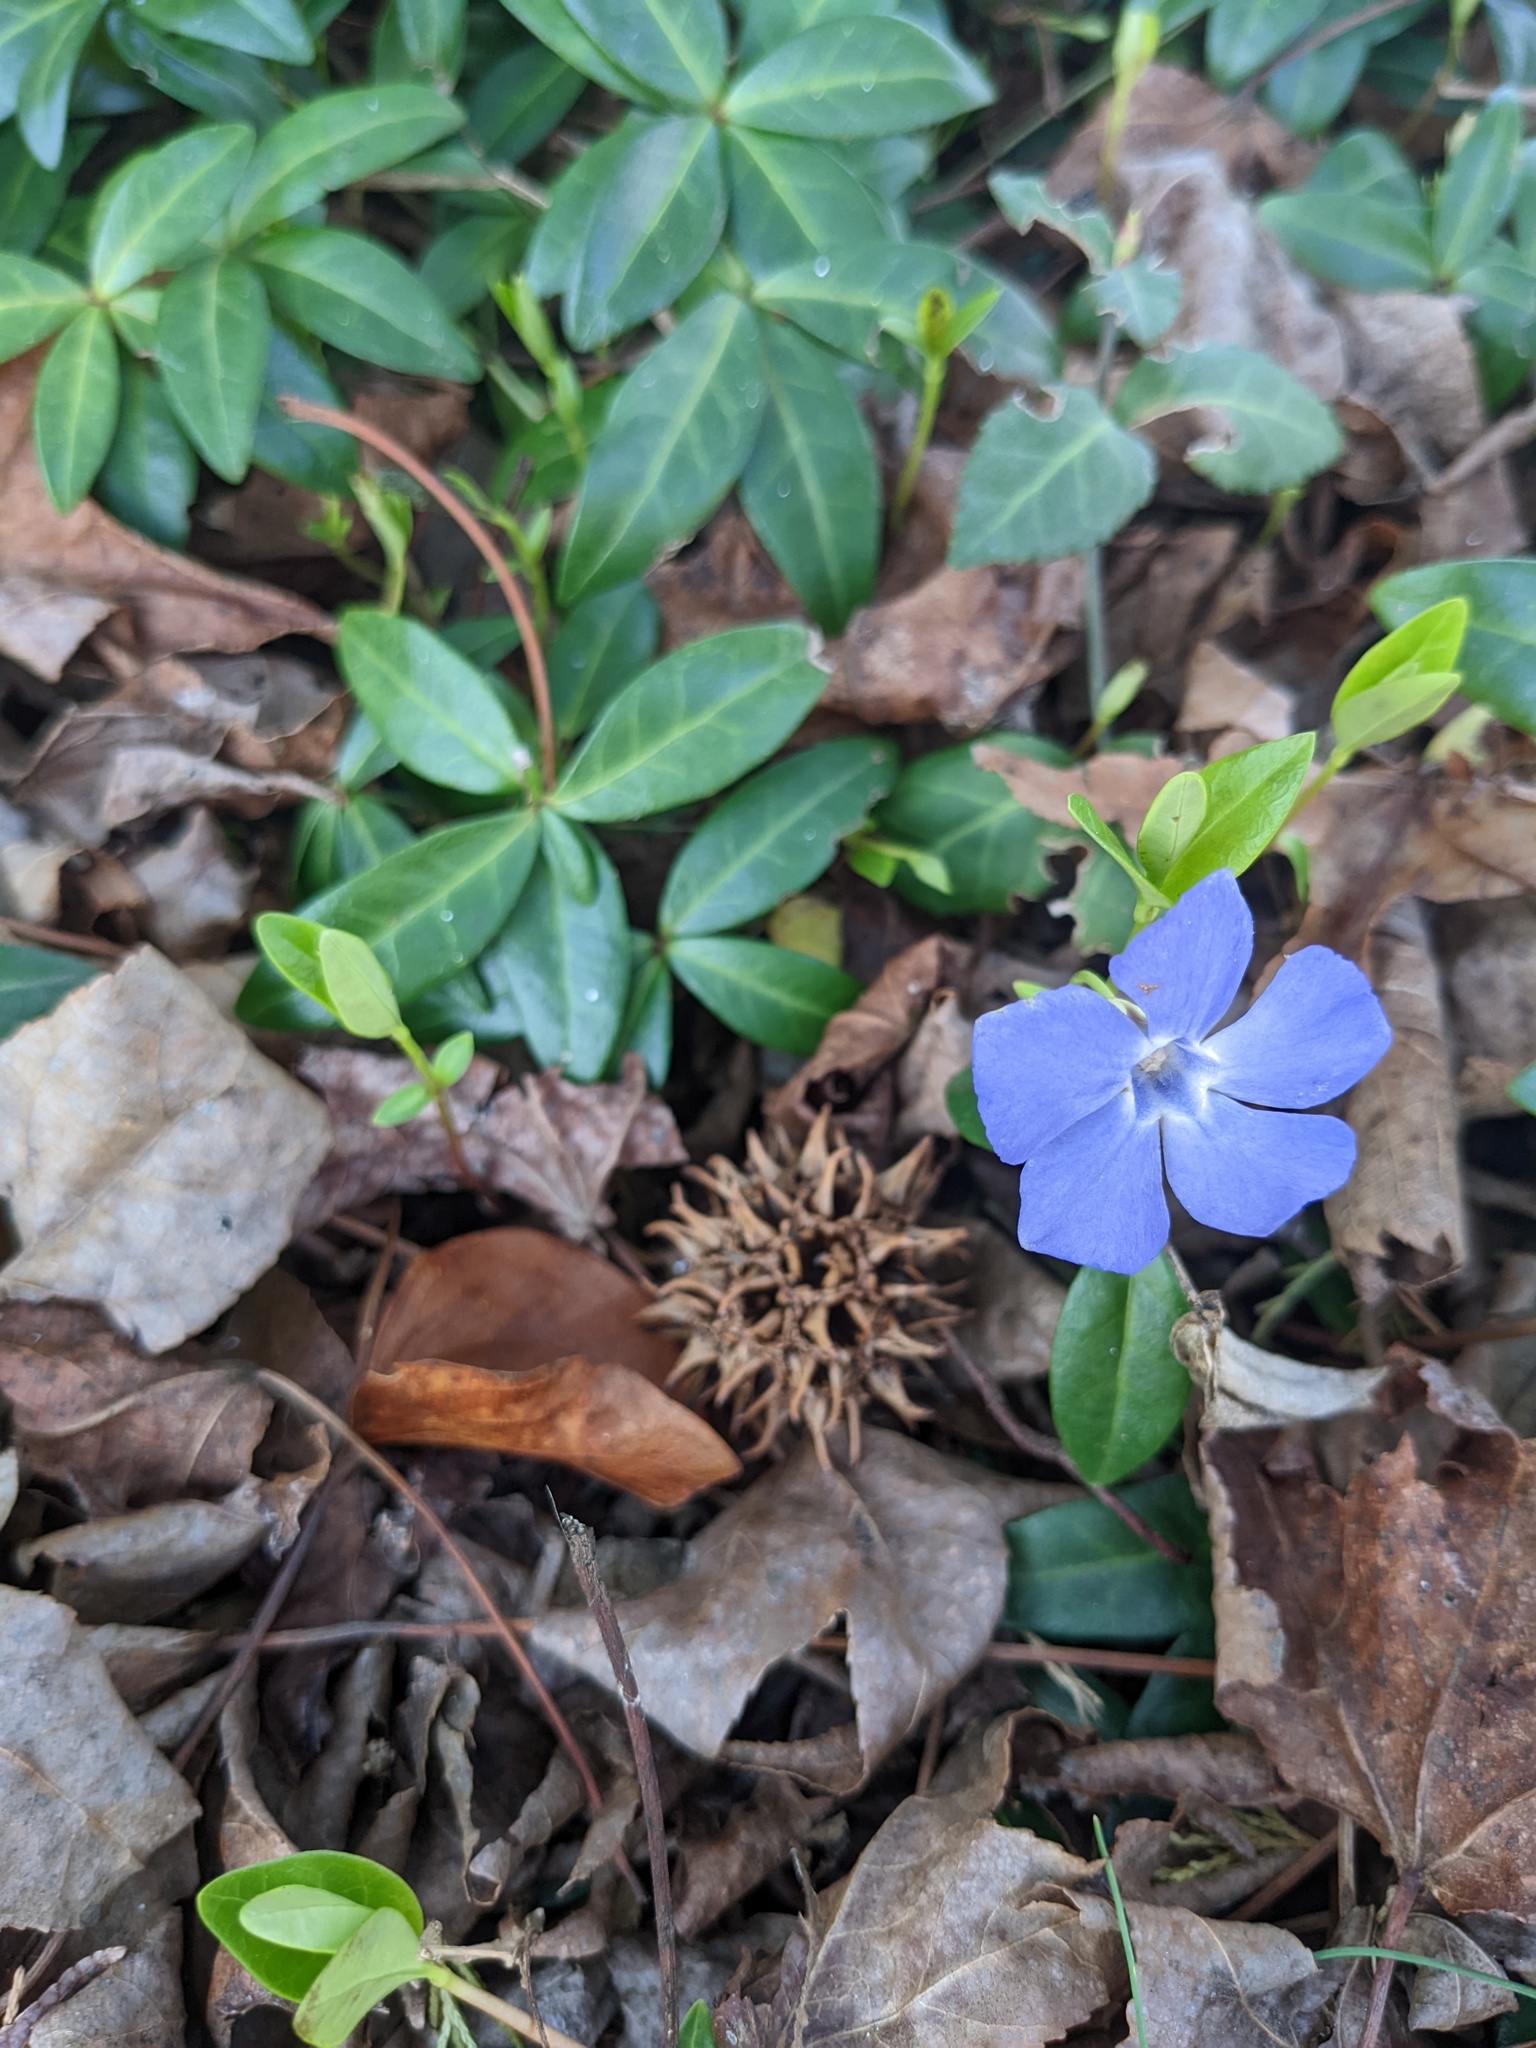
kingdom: Plantae
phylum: Tracheophyta
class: Magnoliopsida
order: Gentianales
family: Apocynaceae
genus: Vinca
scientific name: Vinca minor
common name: Lesser periwinkle
